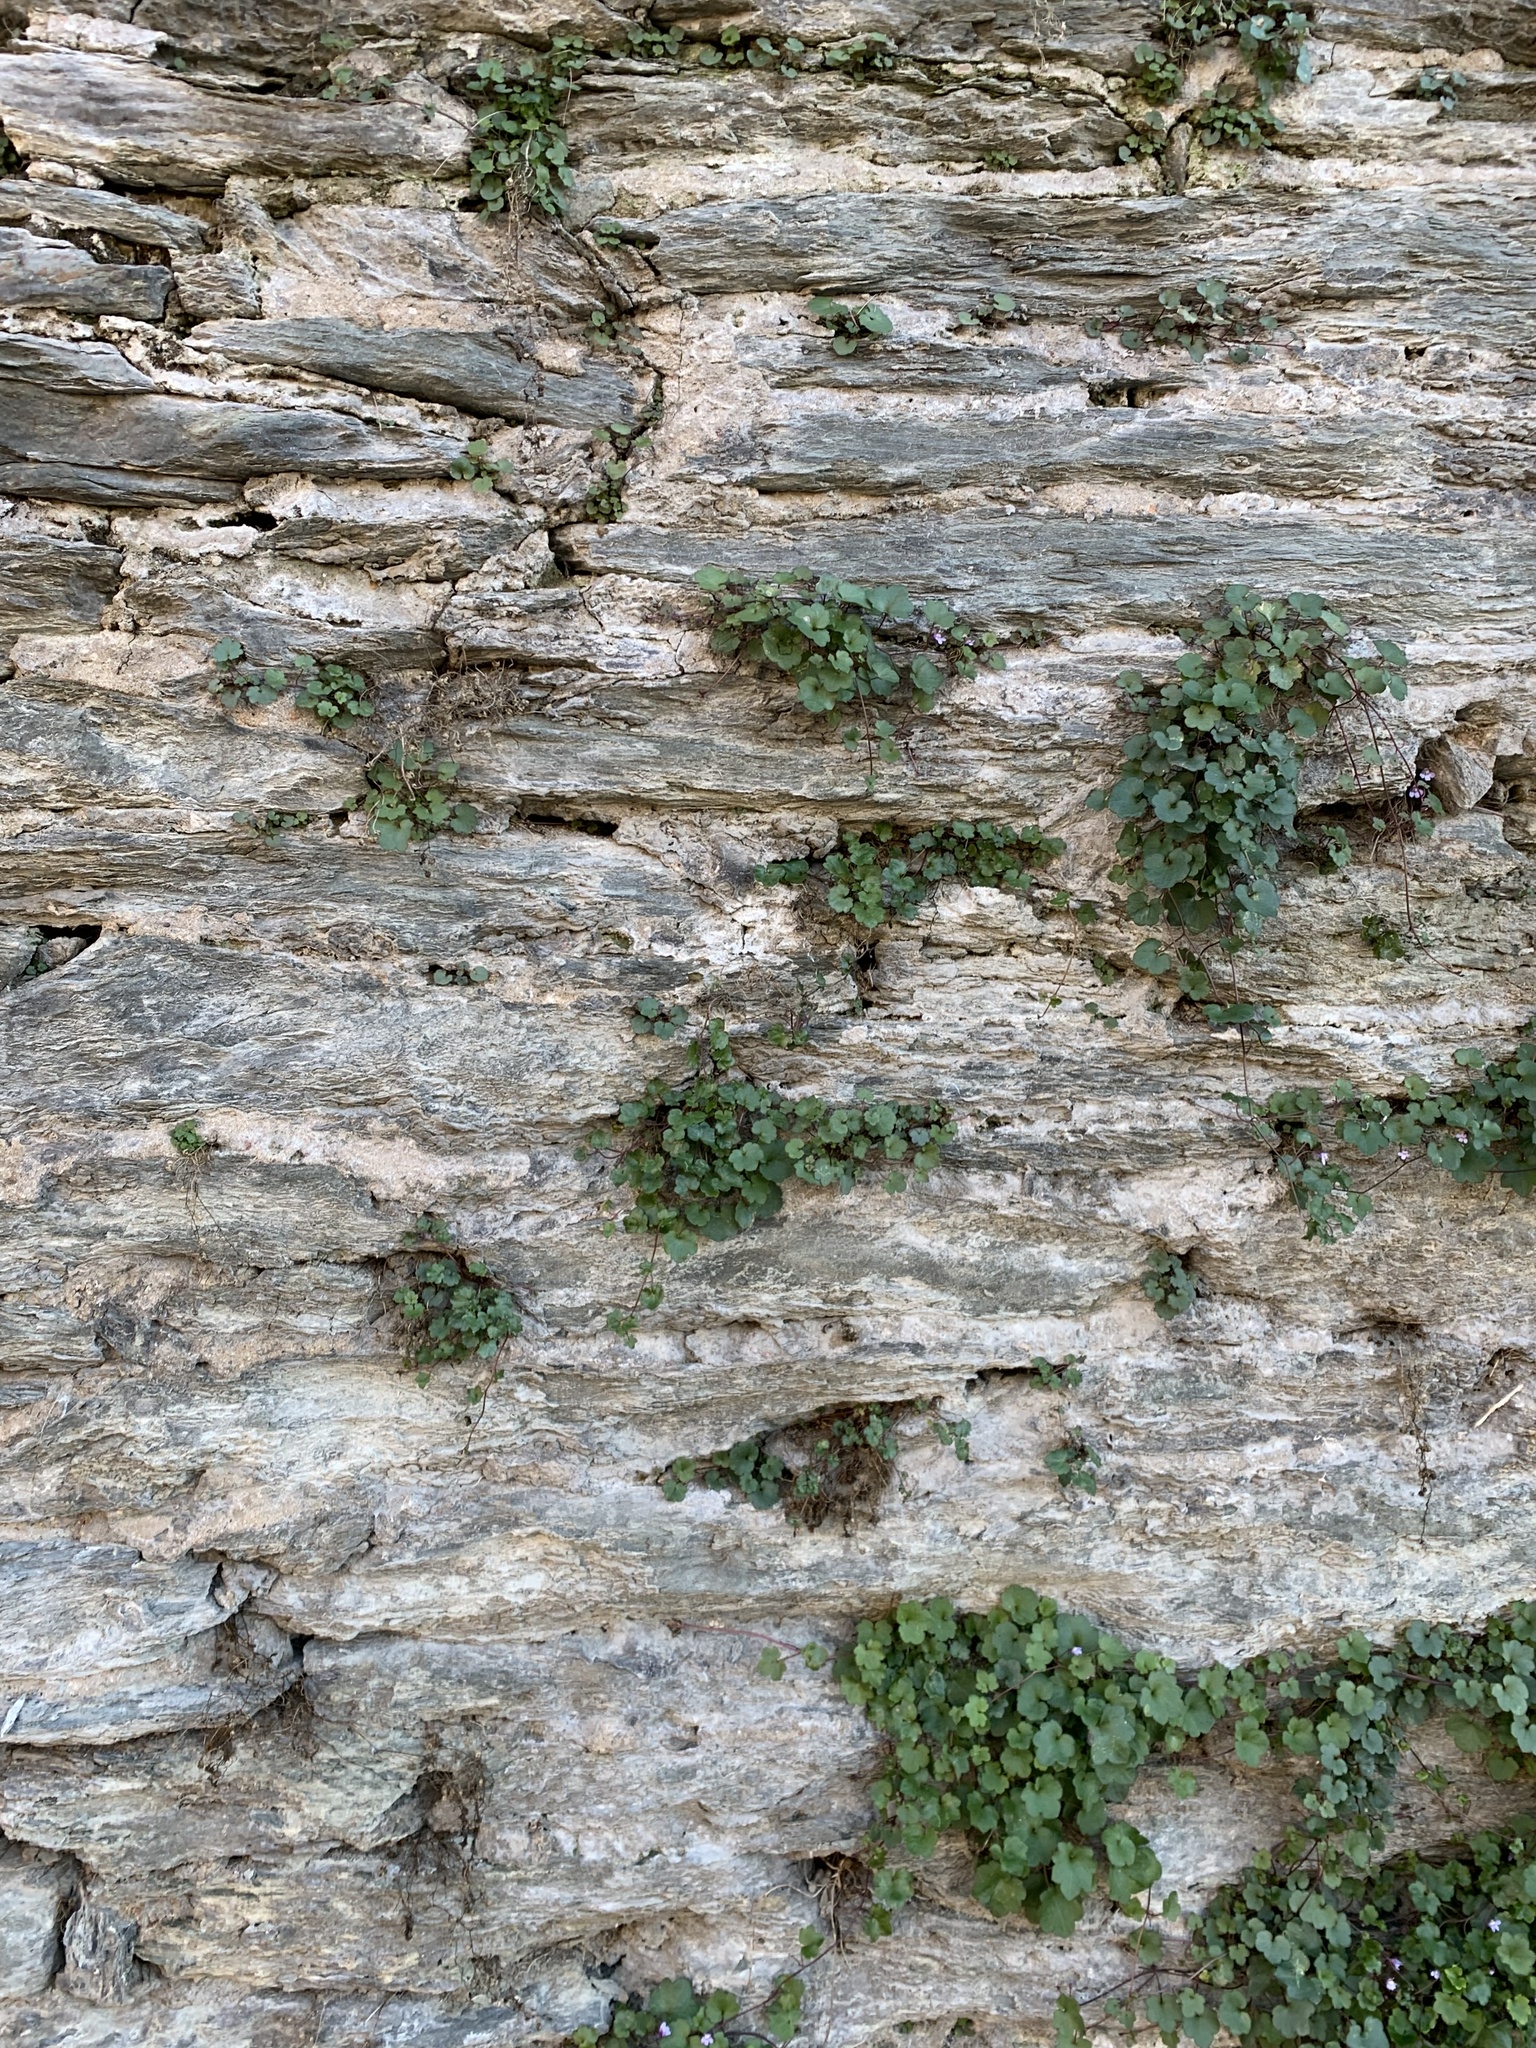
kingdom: Plantae
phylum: Tracheophyta
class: Magnoliopsida
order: Lamiales
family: Plantaginaceae
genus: Cymbalaria
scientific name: Cymbalaria muralis
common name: Ivy-leaved toadflax
